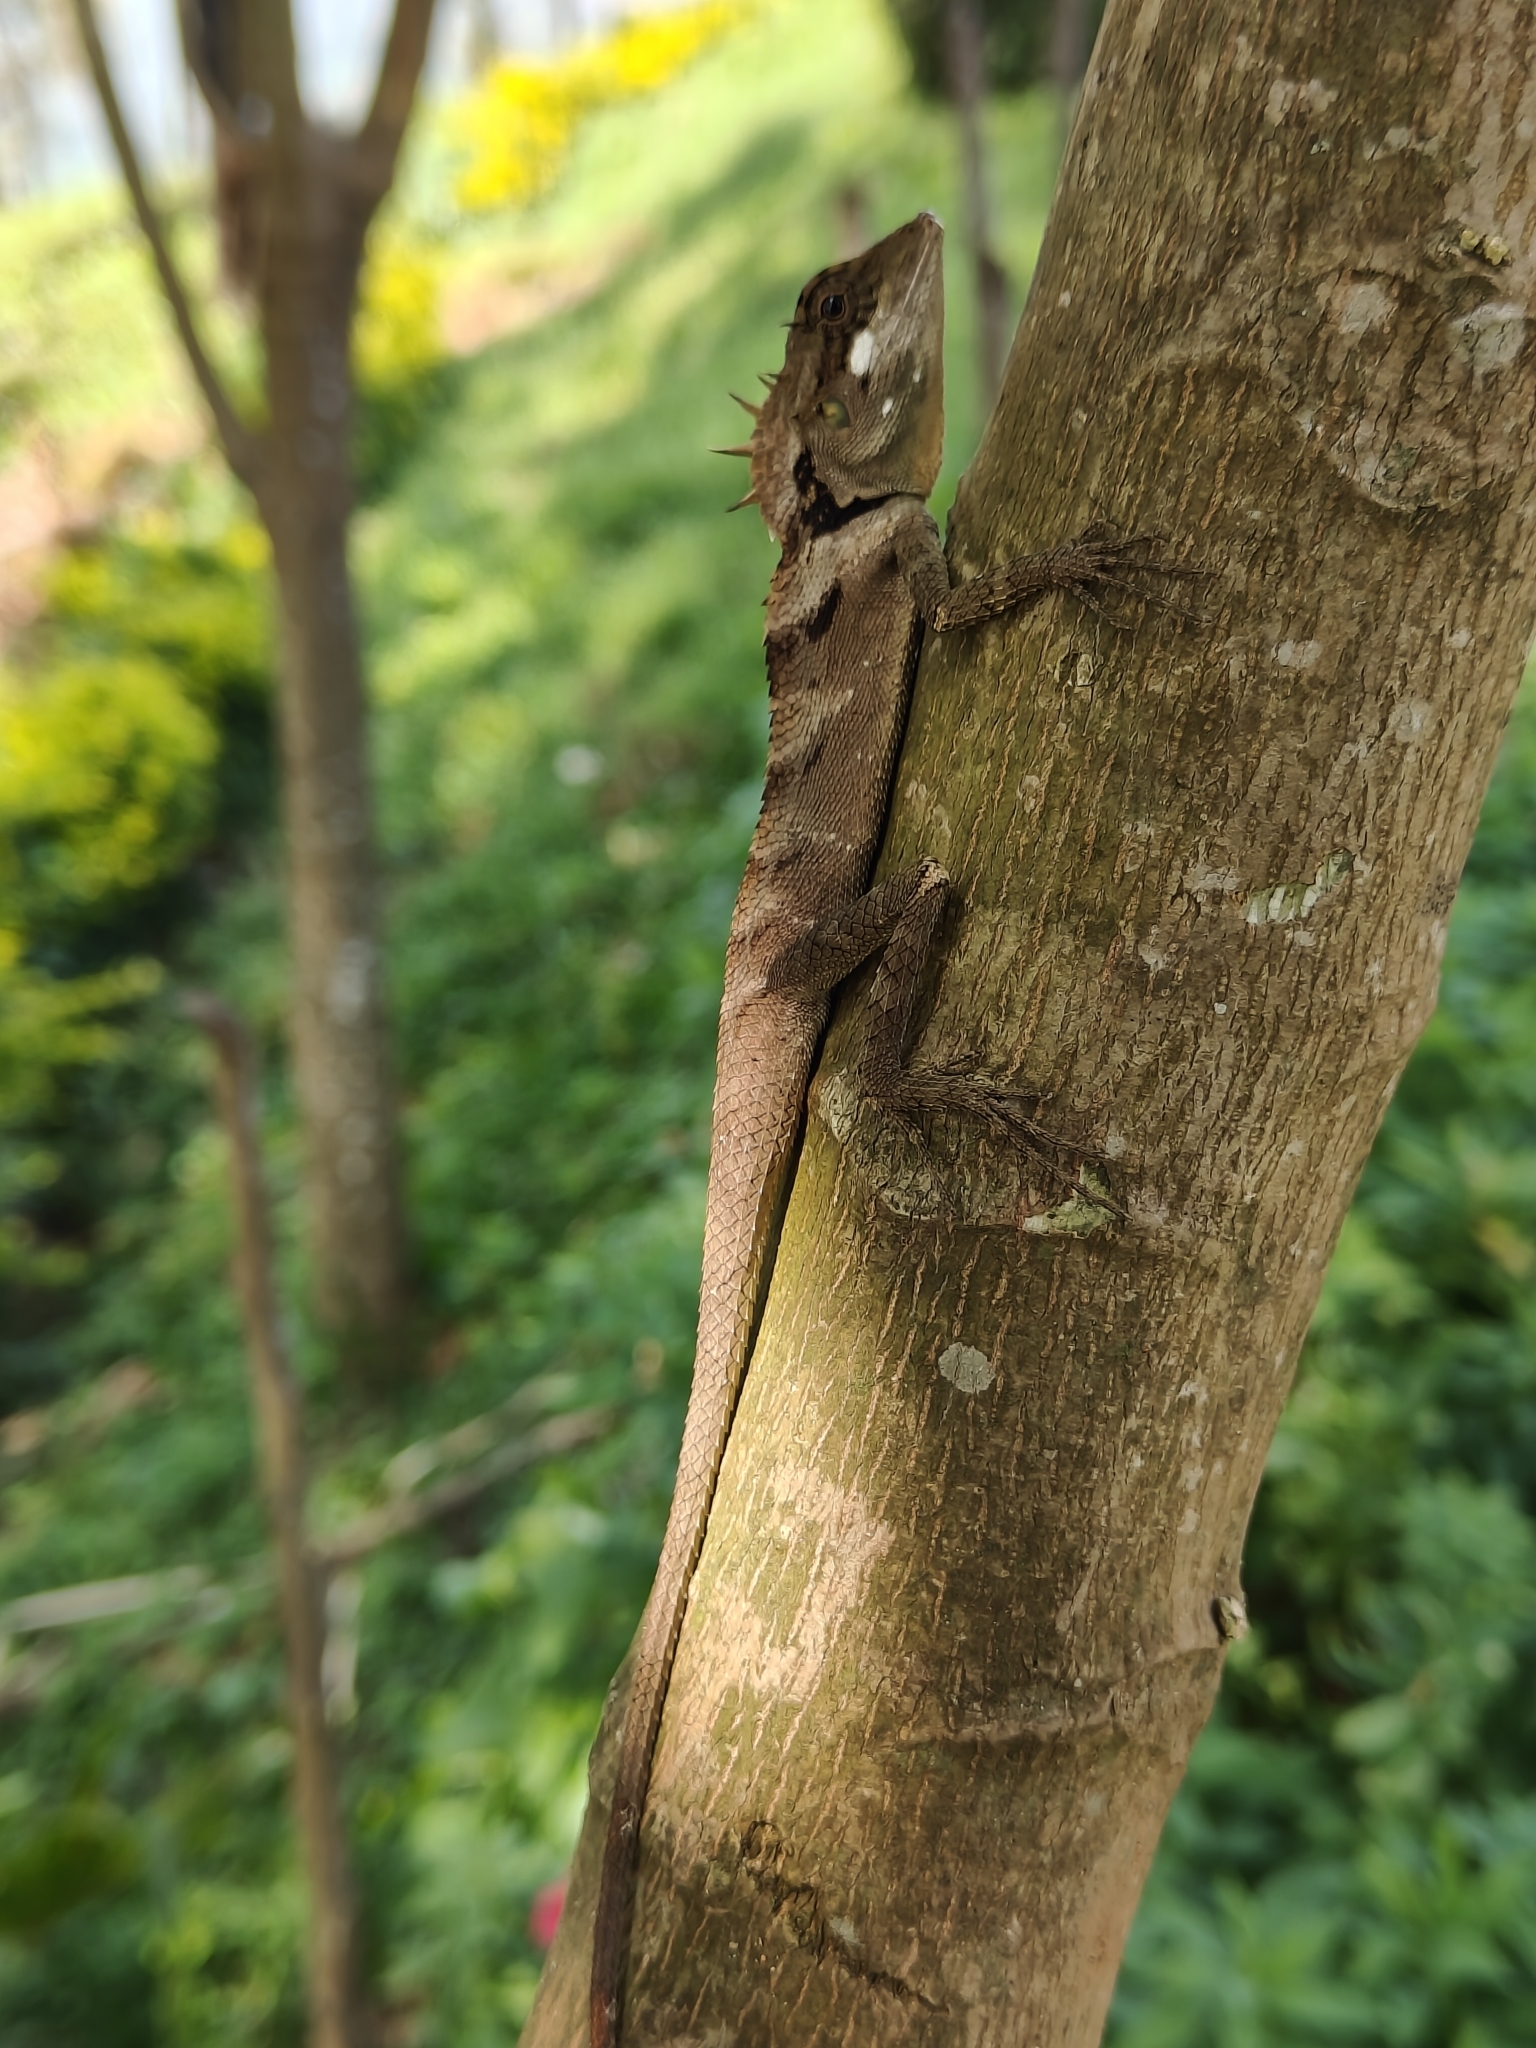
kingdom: Animalia
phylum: Chordata
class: Squamata
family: Agamidae
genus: Monilesaurus
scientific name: Monilesaurus ellioti
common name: Elliot's forest lizard
